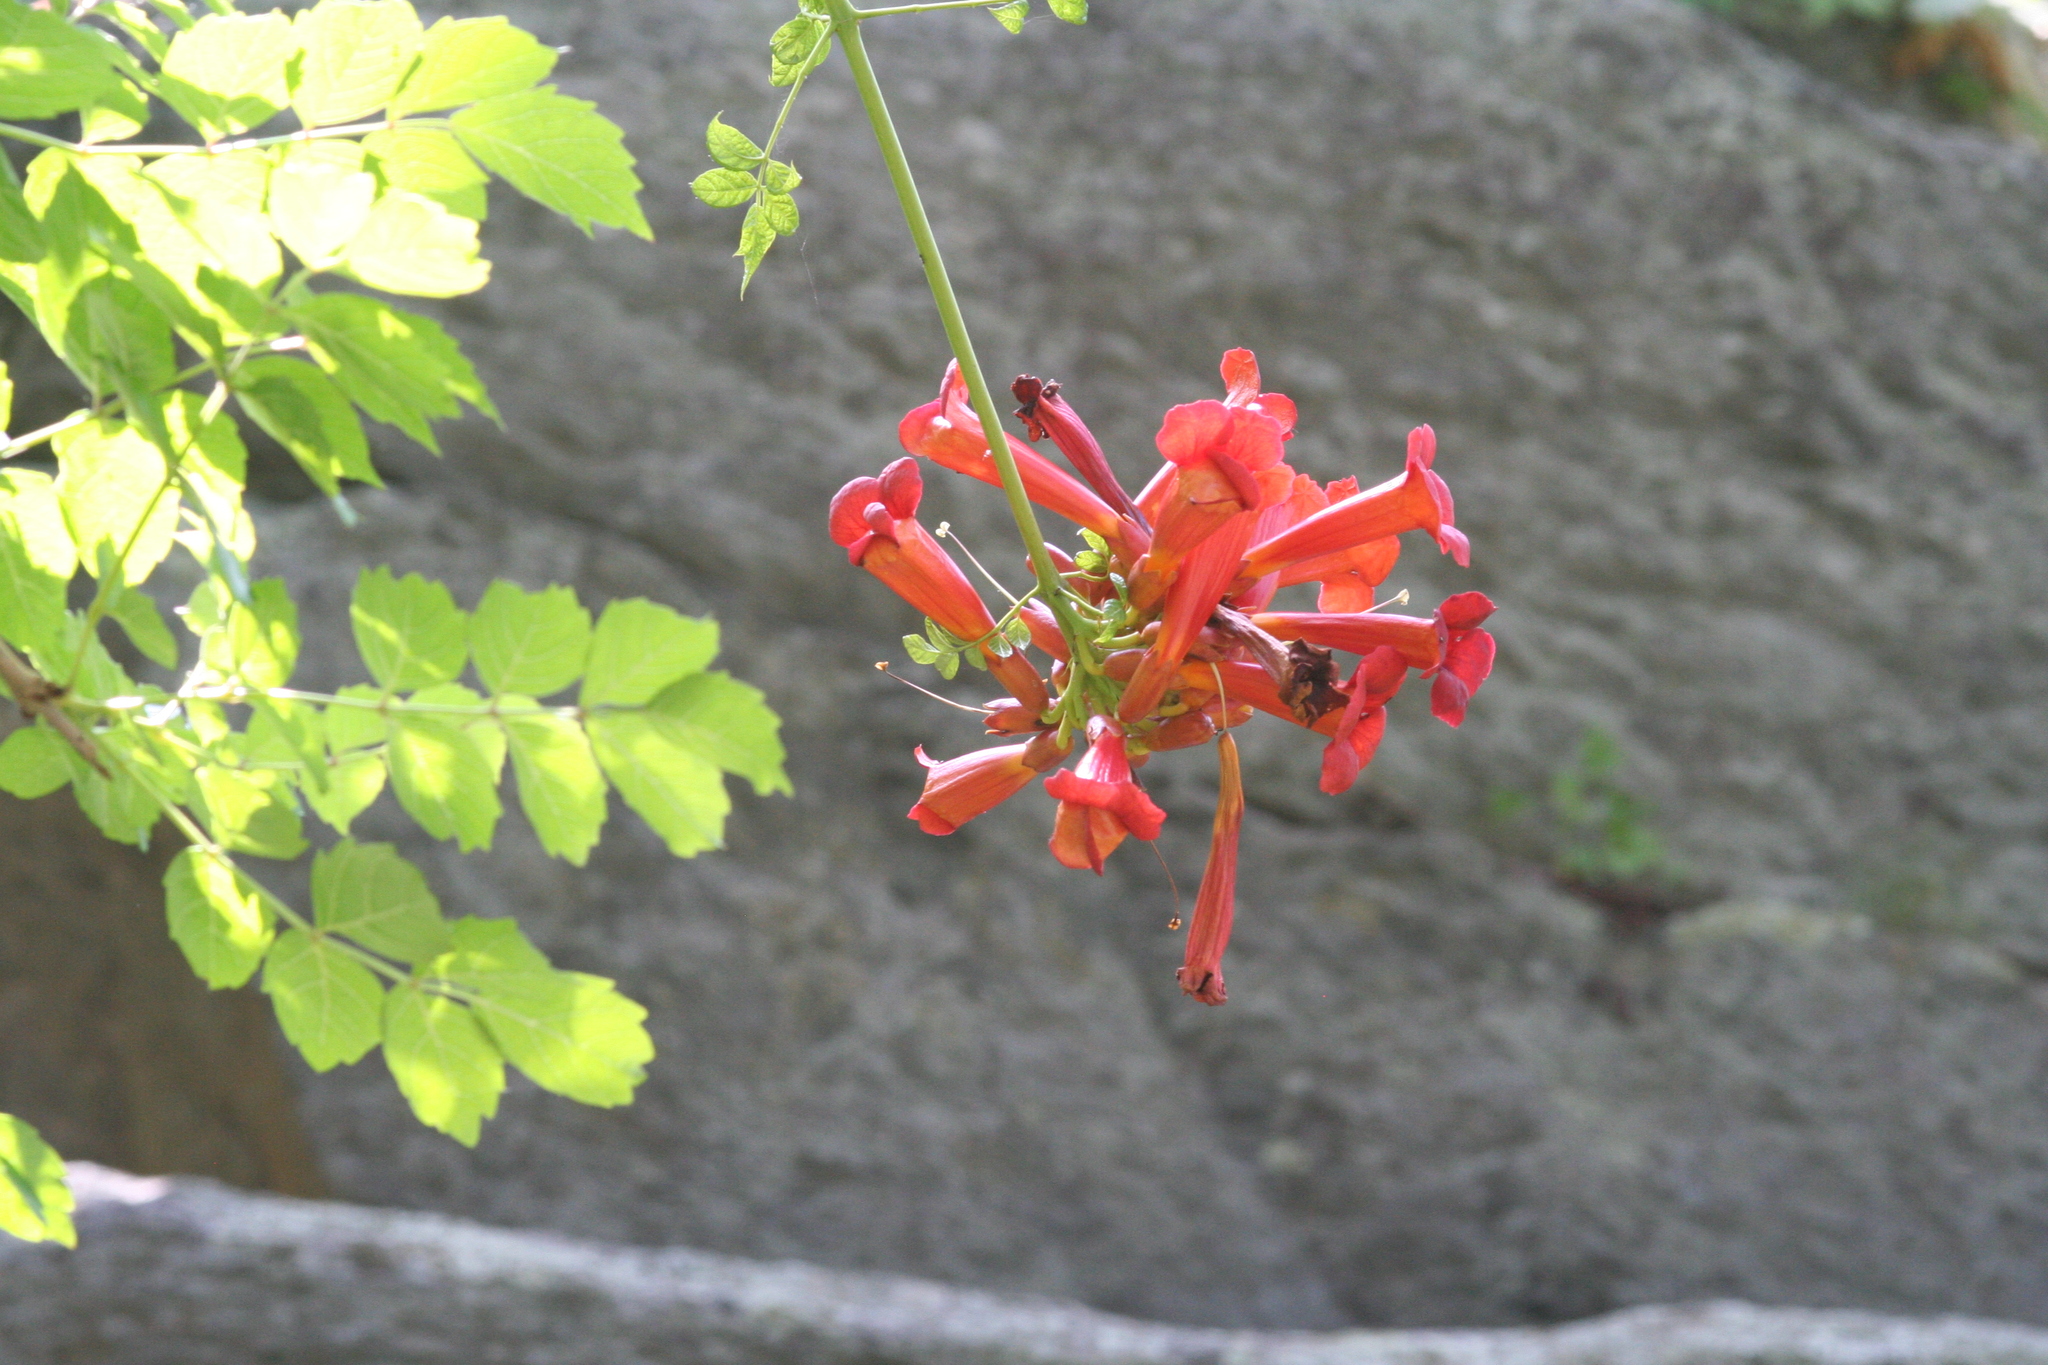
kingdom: Plantae
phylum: Tracheophyta
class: Magnoliopsida
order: Lamiales
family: Bignoniaceae
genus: Campsis
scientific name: Campsis radicans
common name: Trumpet-creeper
